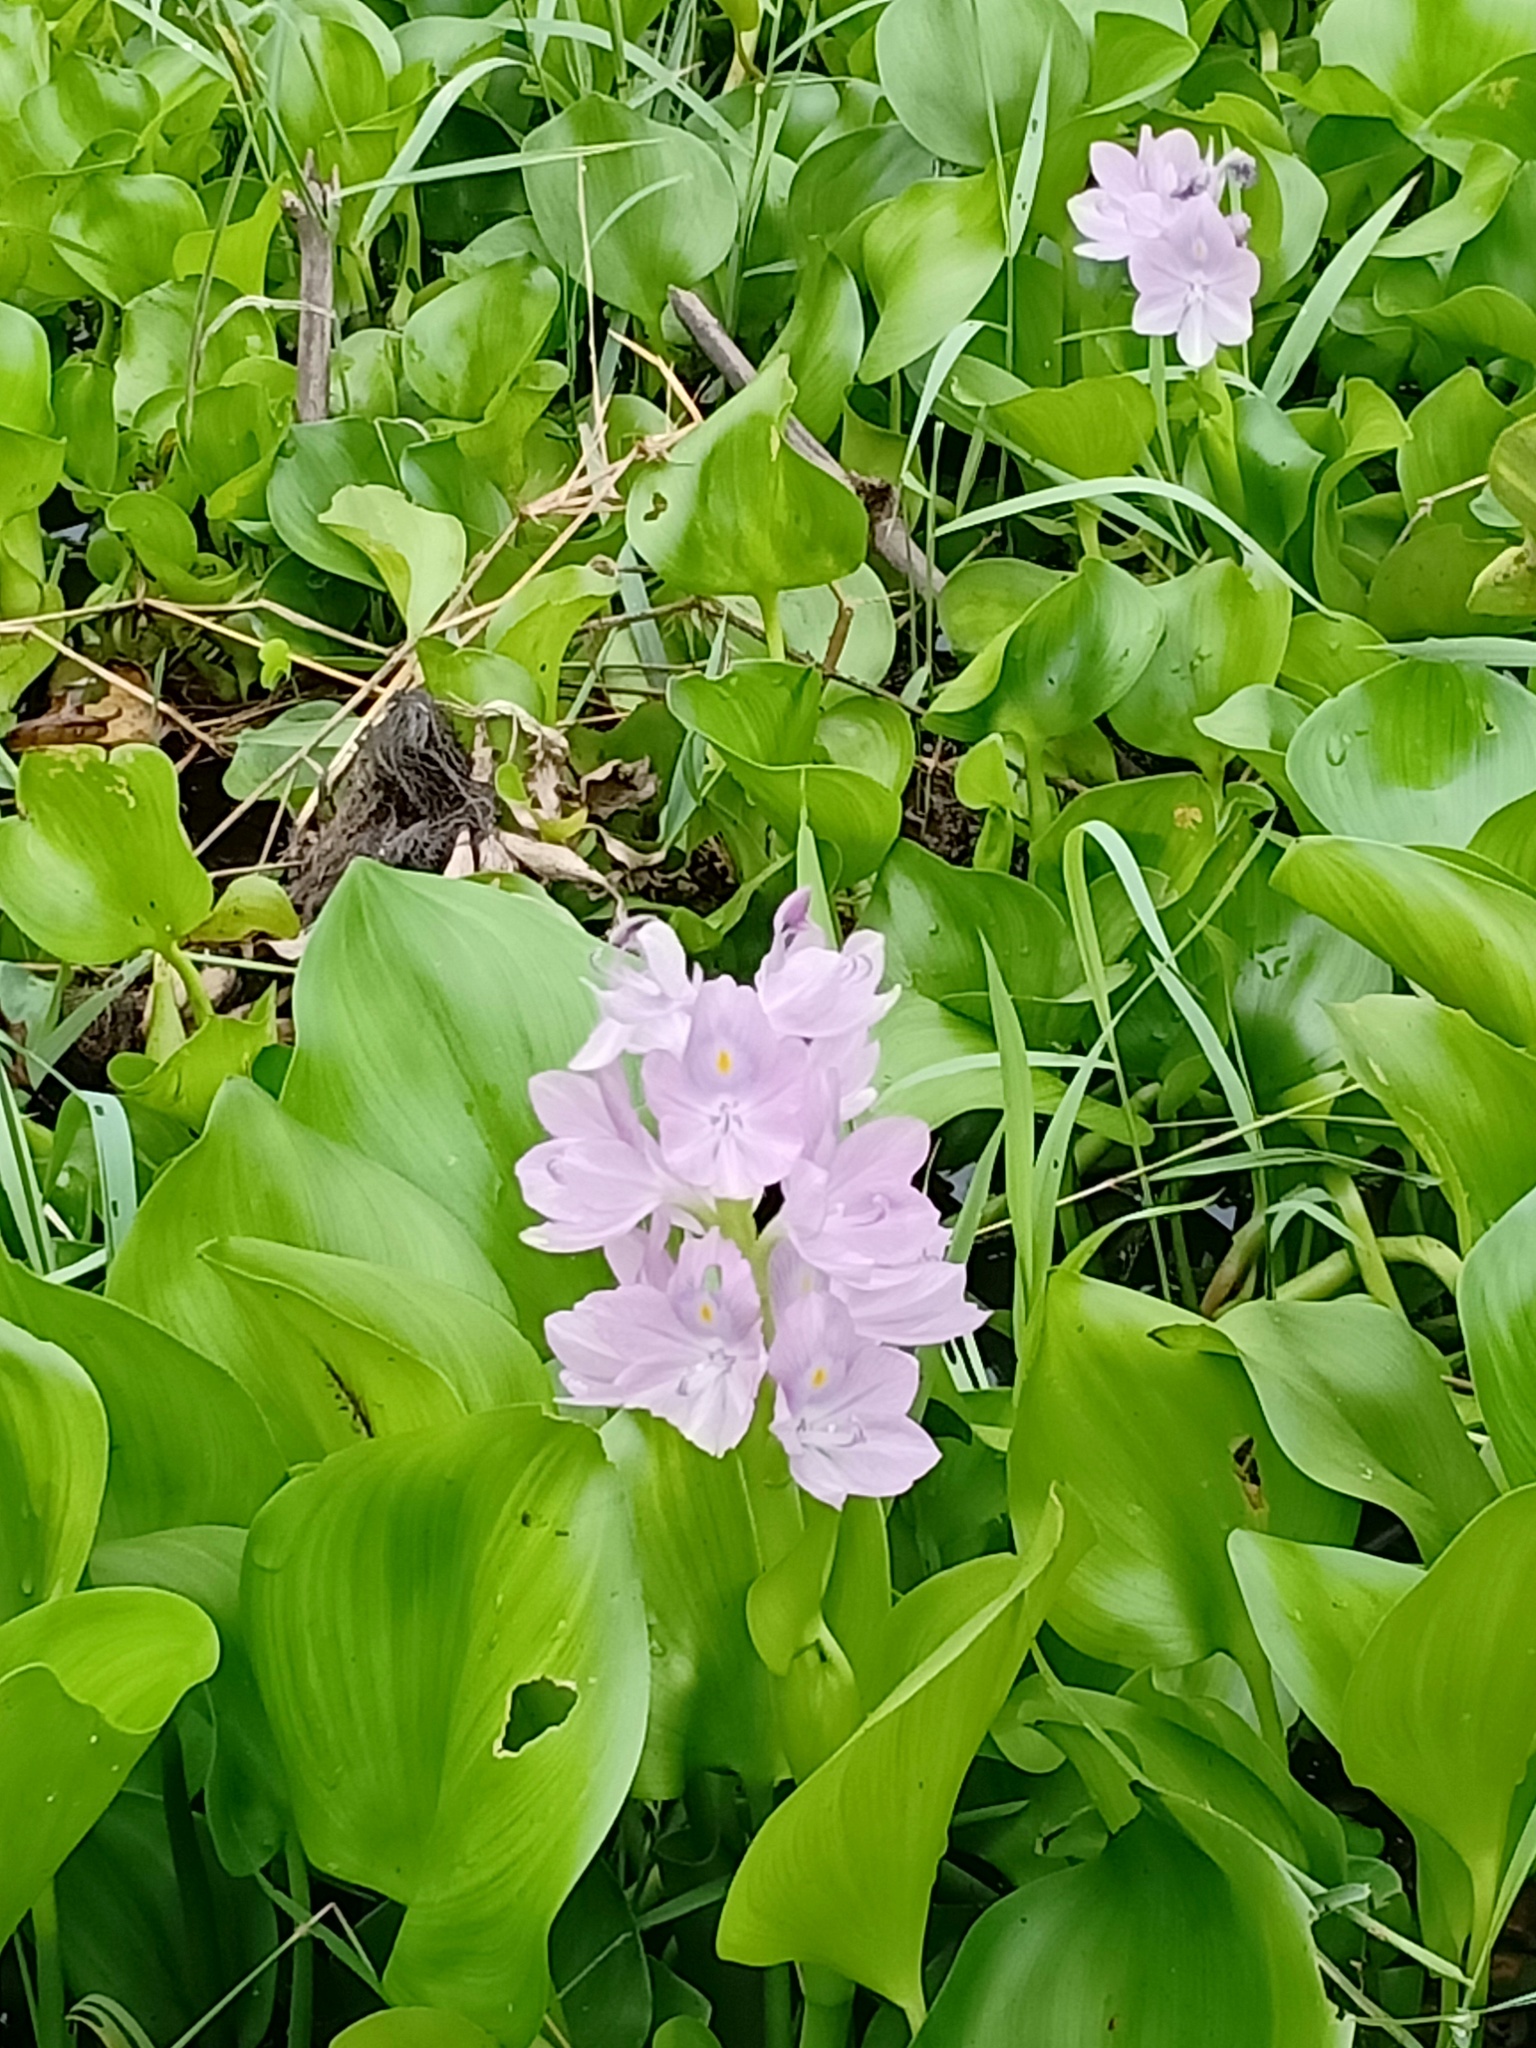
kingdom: Plantae
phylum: Tracheophyta
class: Liliopsida
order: Commelinales
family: Pontederiaceae
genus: Pontederia
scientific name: Pontederia crassipes
